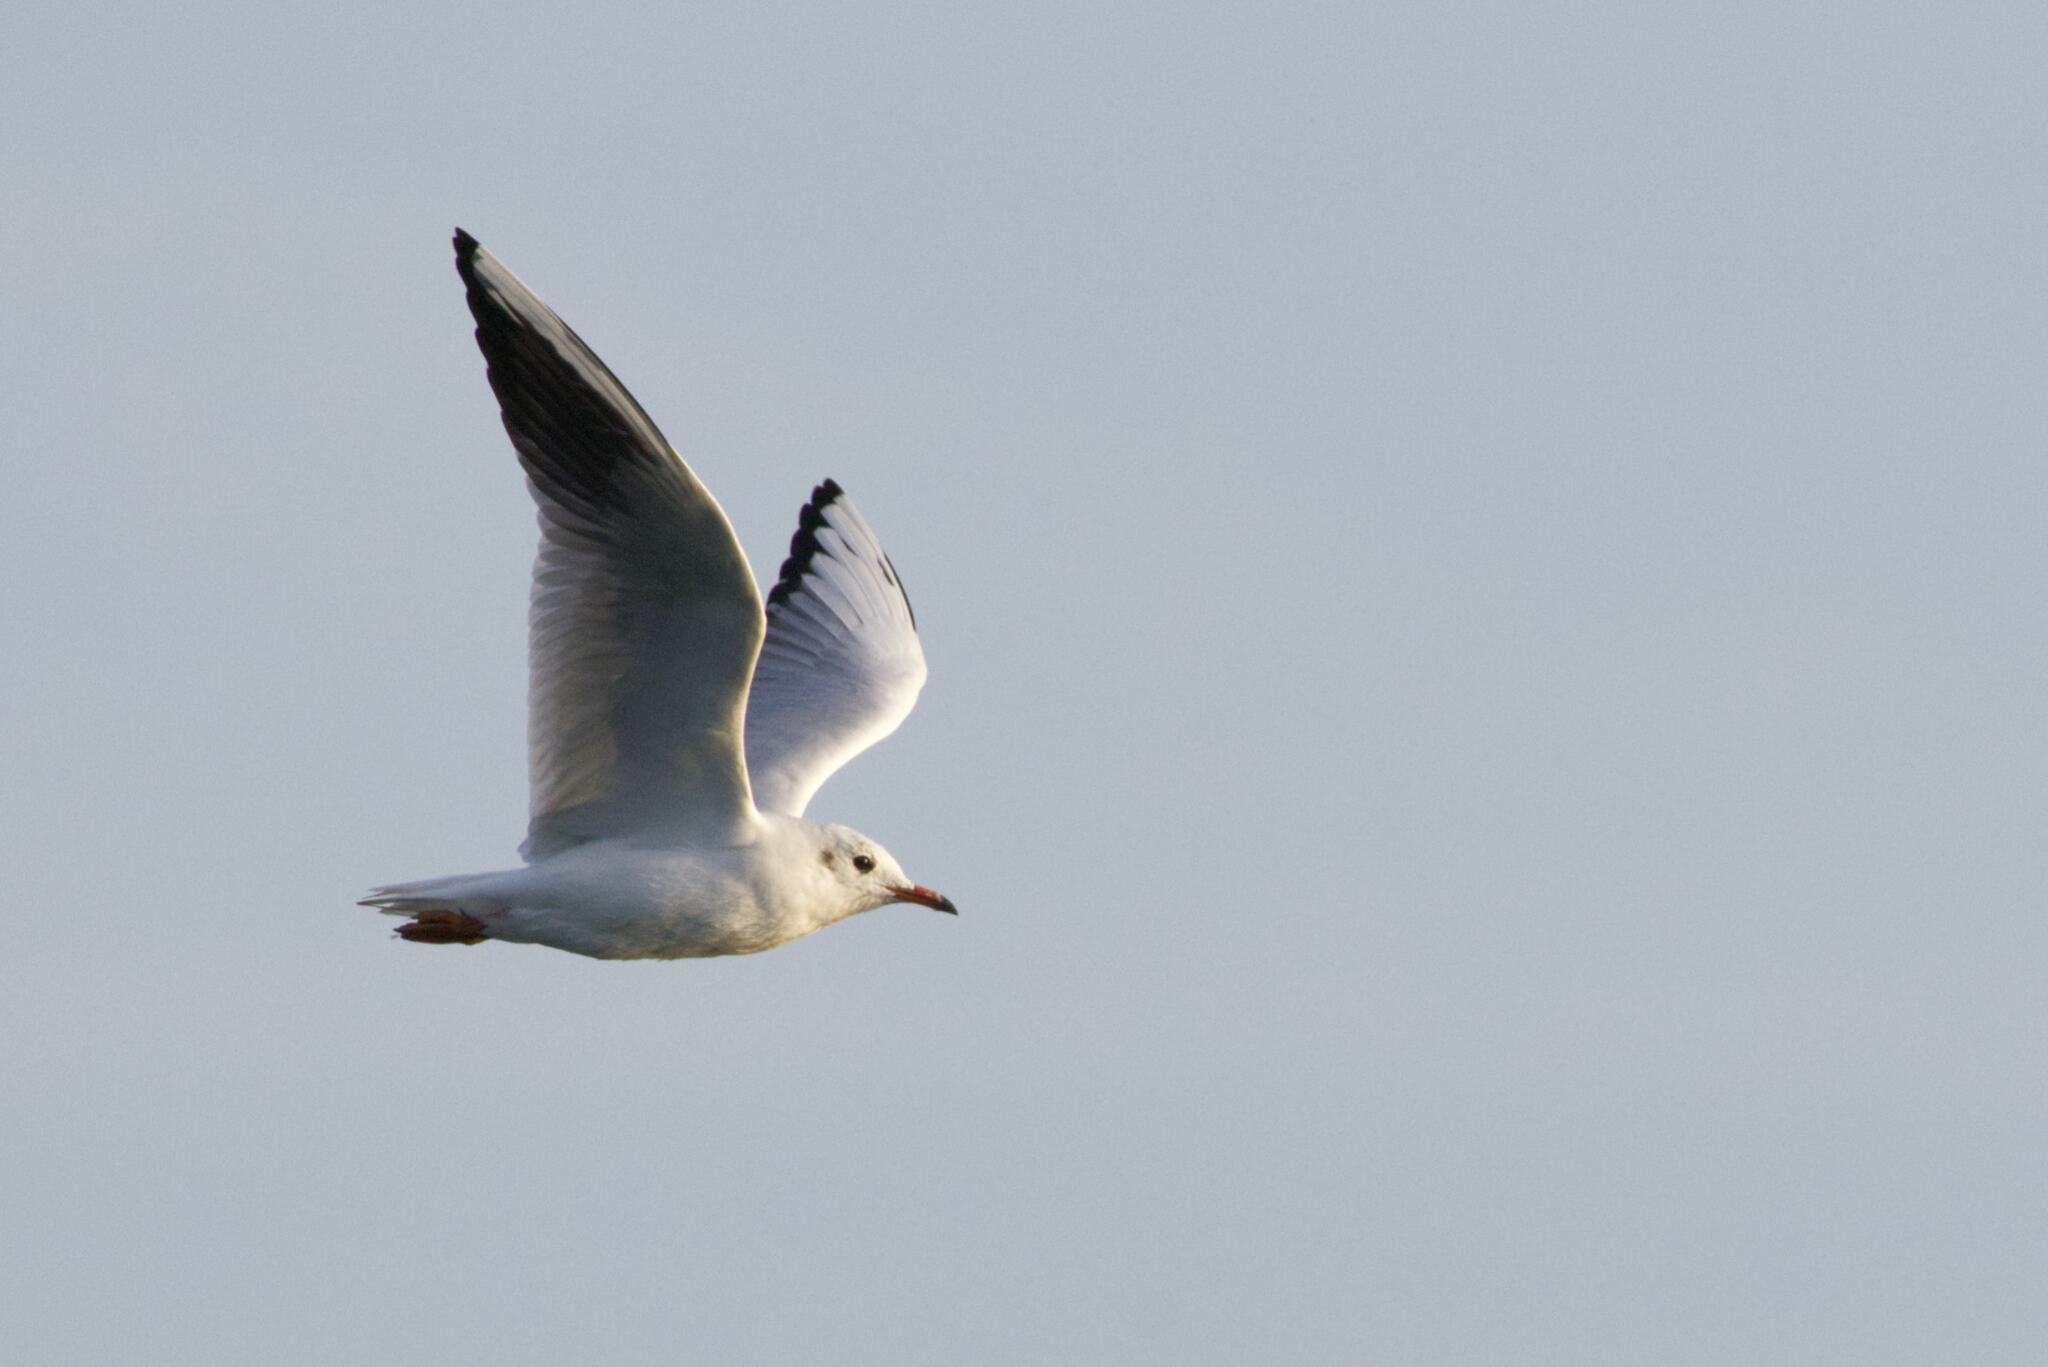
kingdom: Animalia
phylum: Chordata
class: Aves
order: Charadriiformes
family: Laridae
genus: Chroicocephalus
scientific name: Chroicocephalus ridibundus
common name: Black-headed gull
